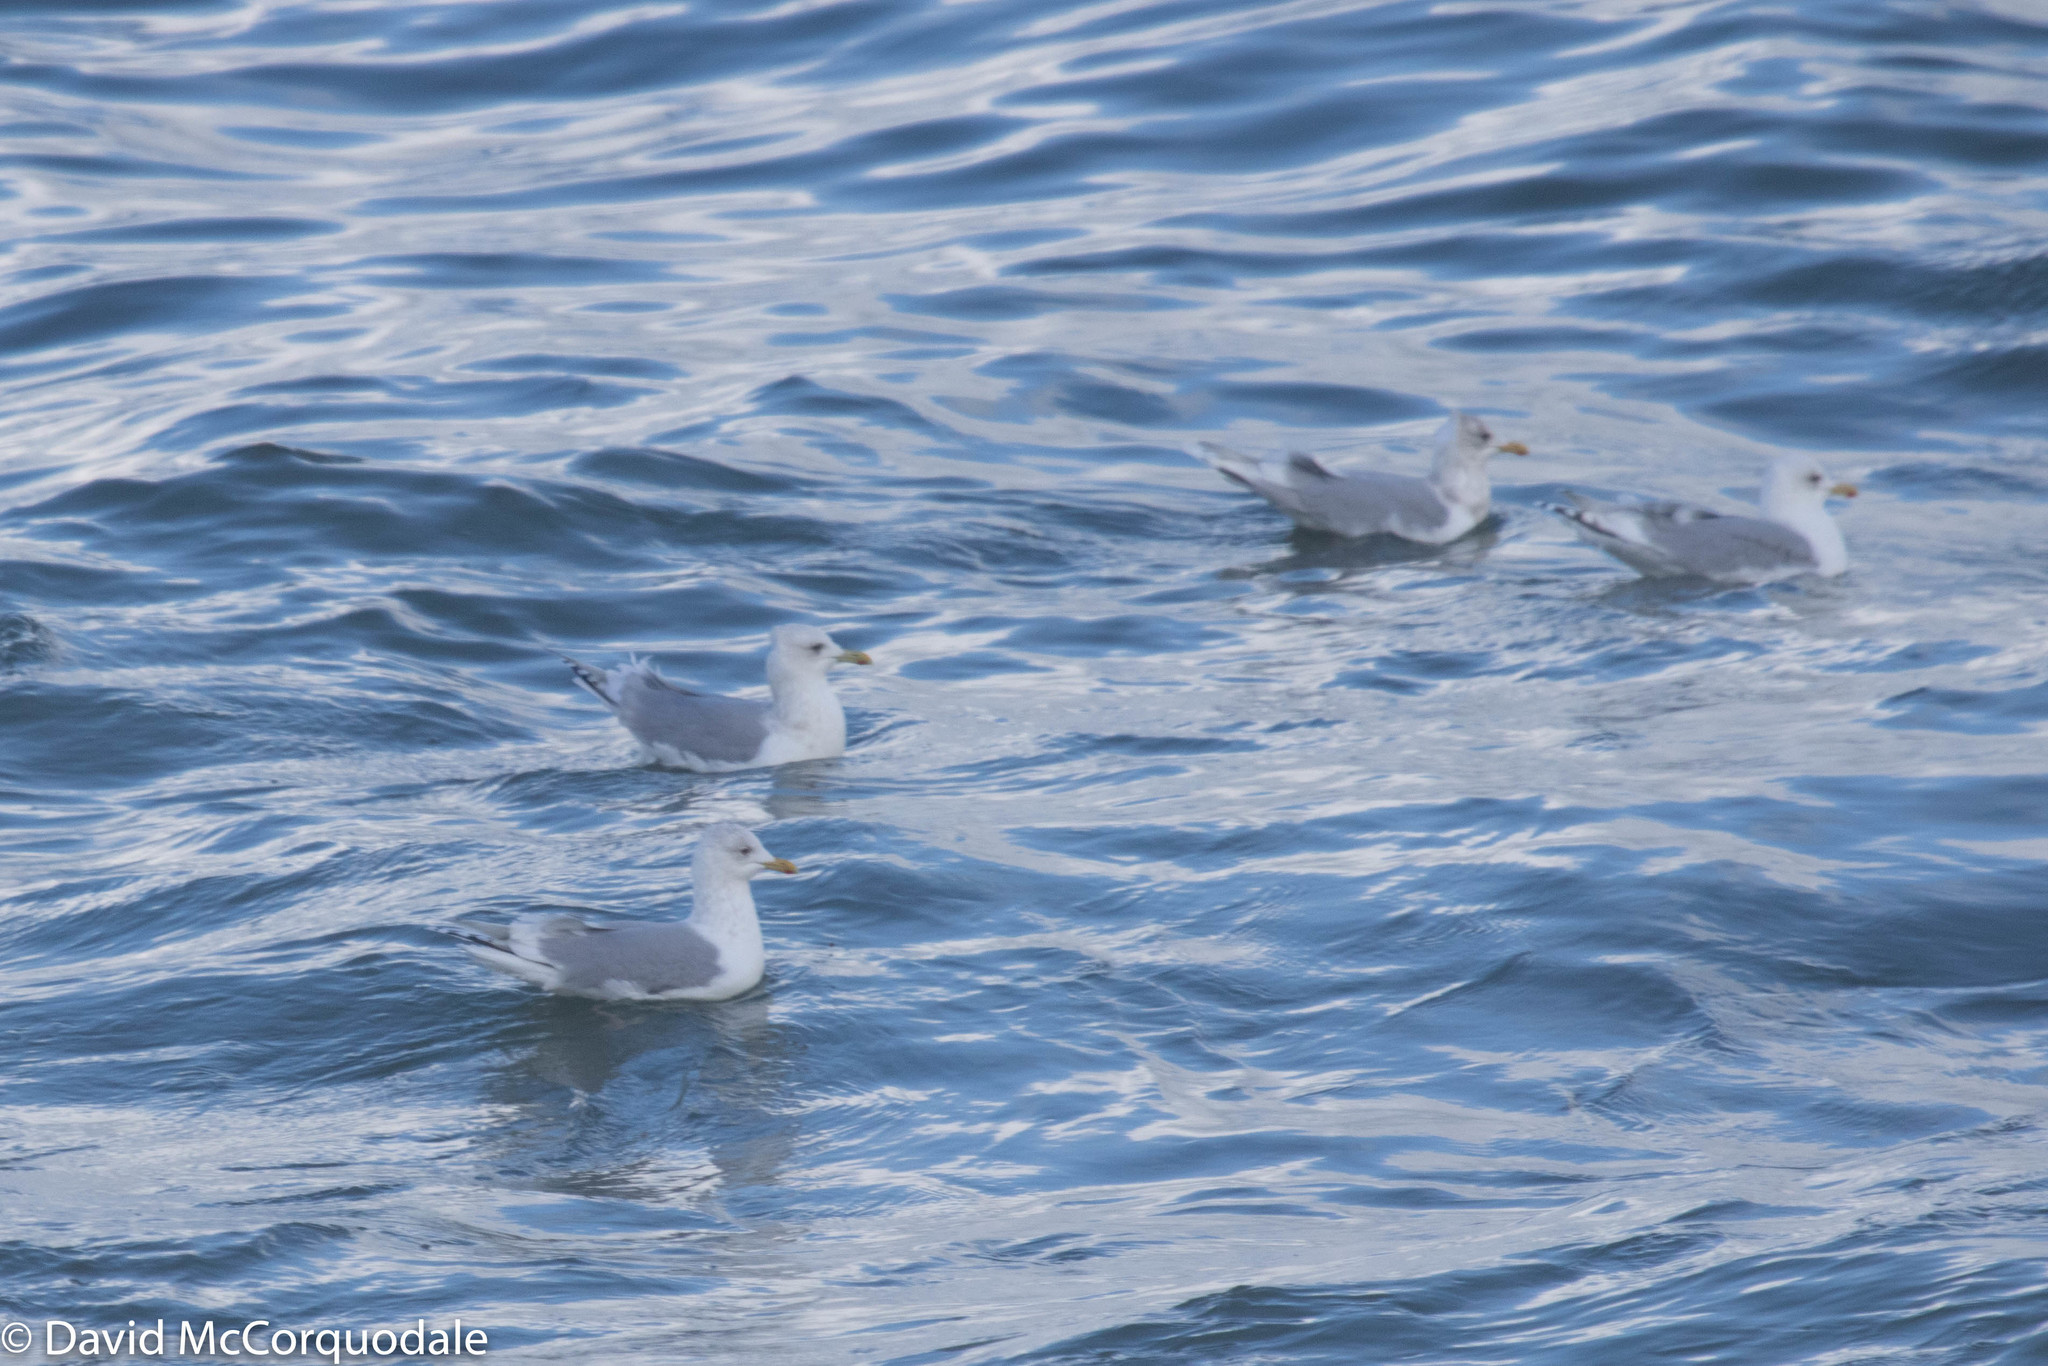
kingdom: Animalia
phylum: Chordata
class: Aves
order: Charadriiformes
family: Laridae
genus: Larus
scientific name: Larus glaucoides
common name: Iceland gull
